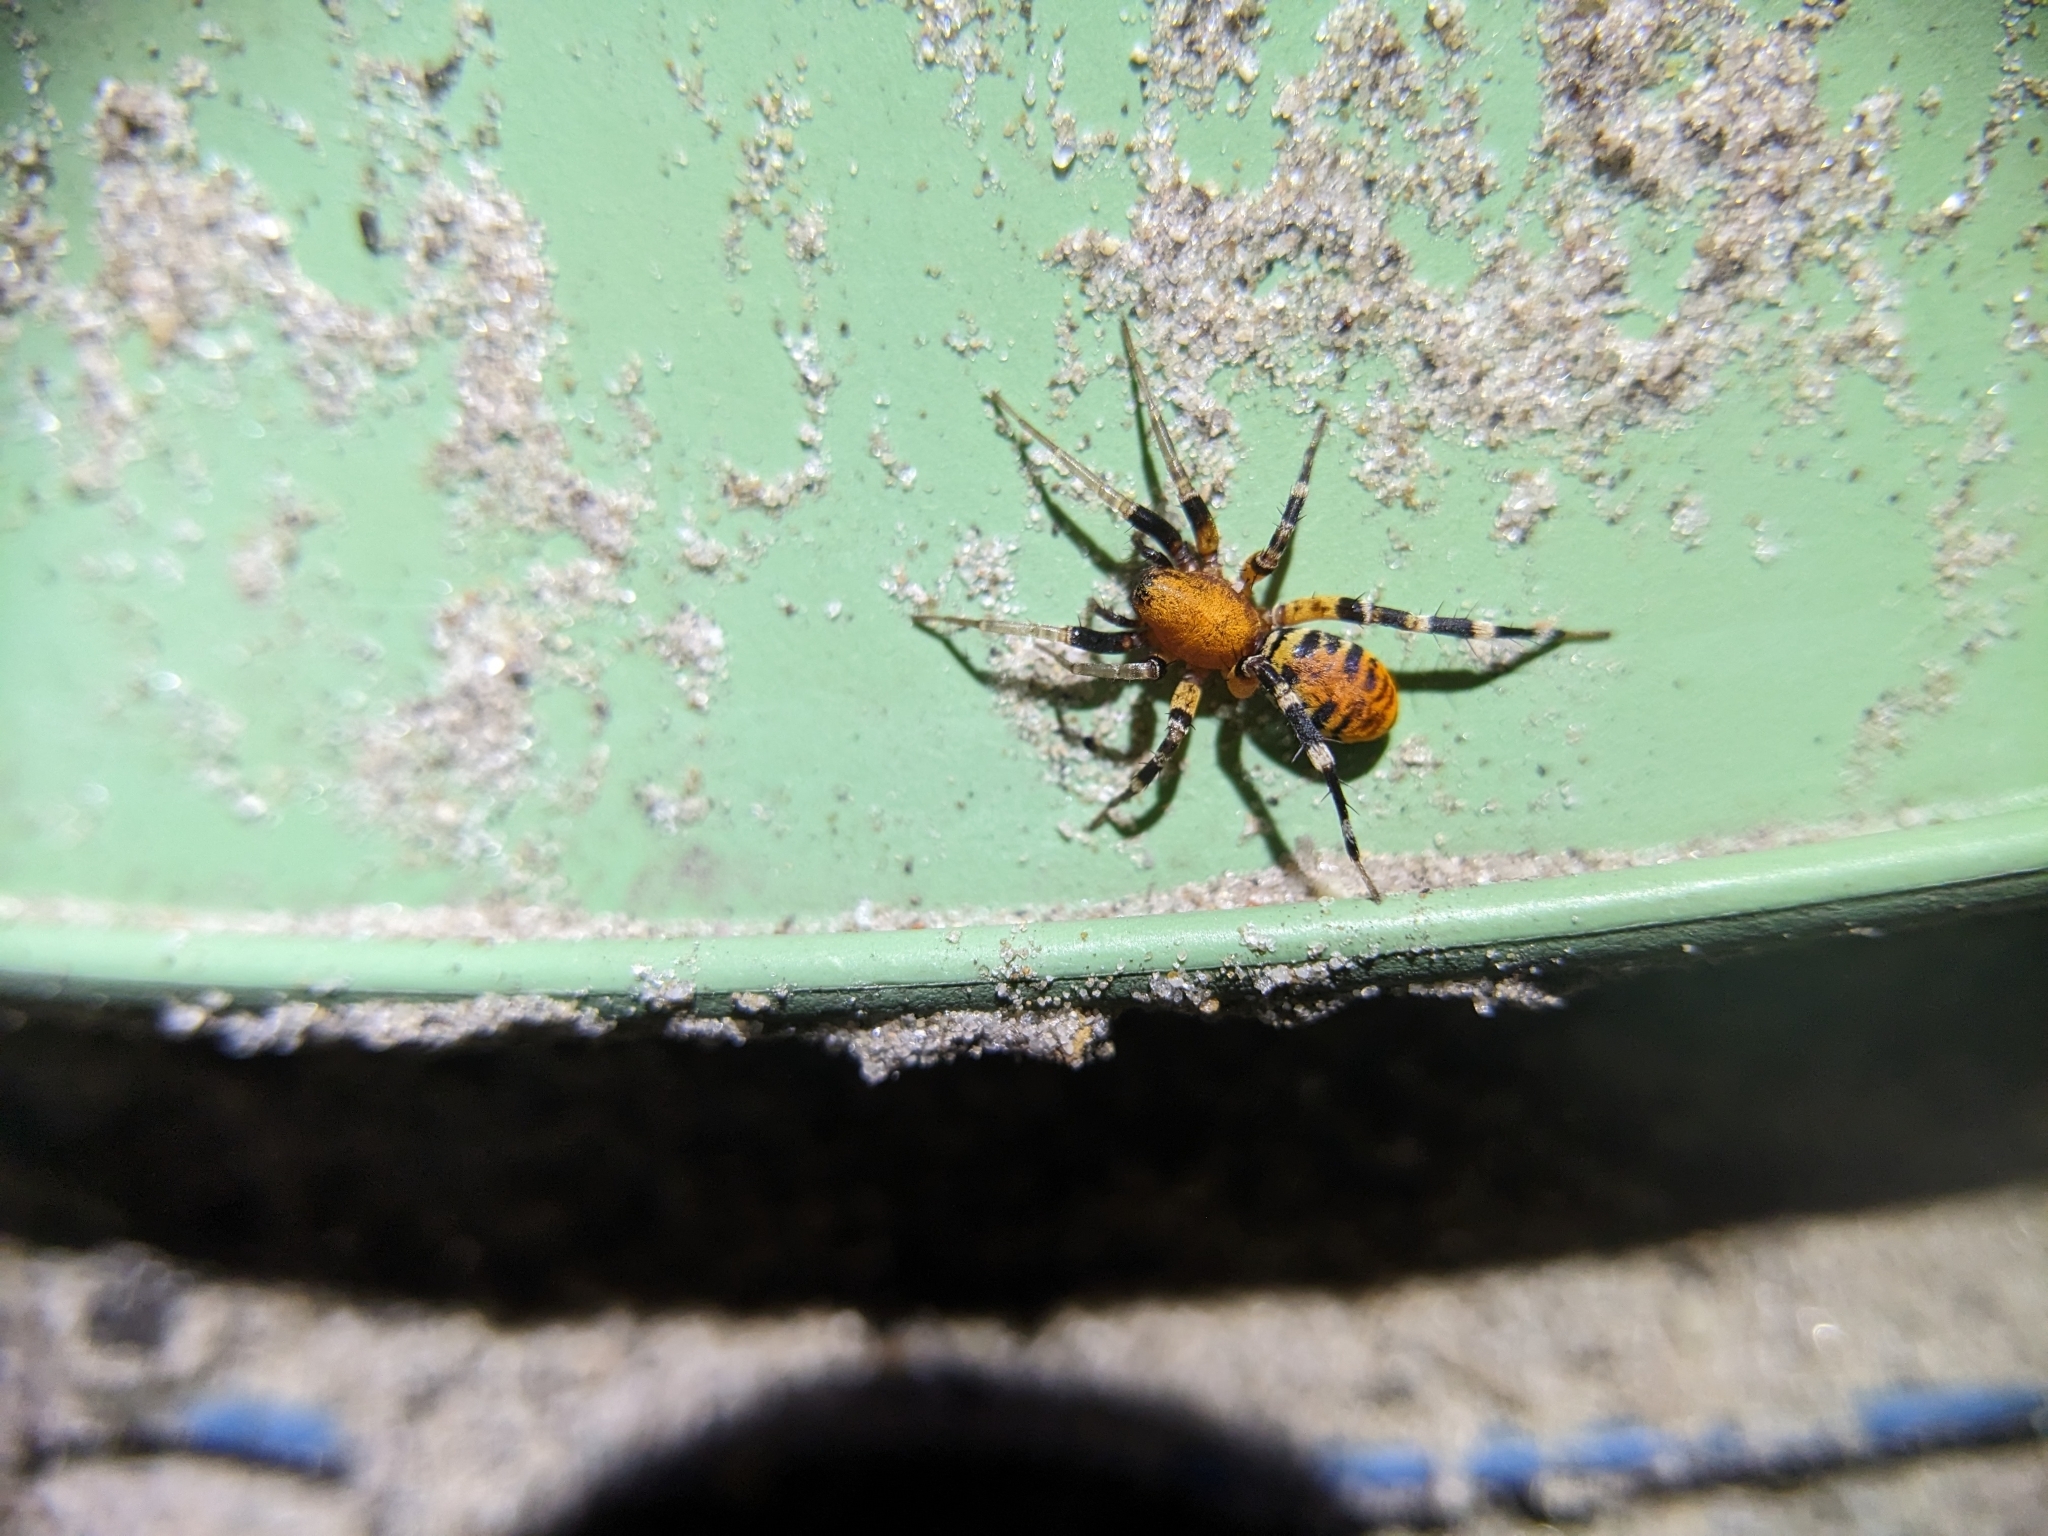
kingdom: Animalia
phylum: Arthropoda
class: Arachnida
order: Araneae
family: Corinnidae
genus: Castianeira
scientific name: Castianeira amoena
